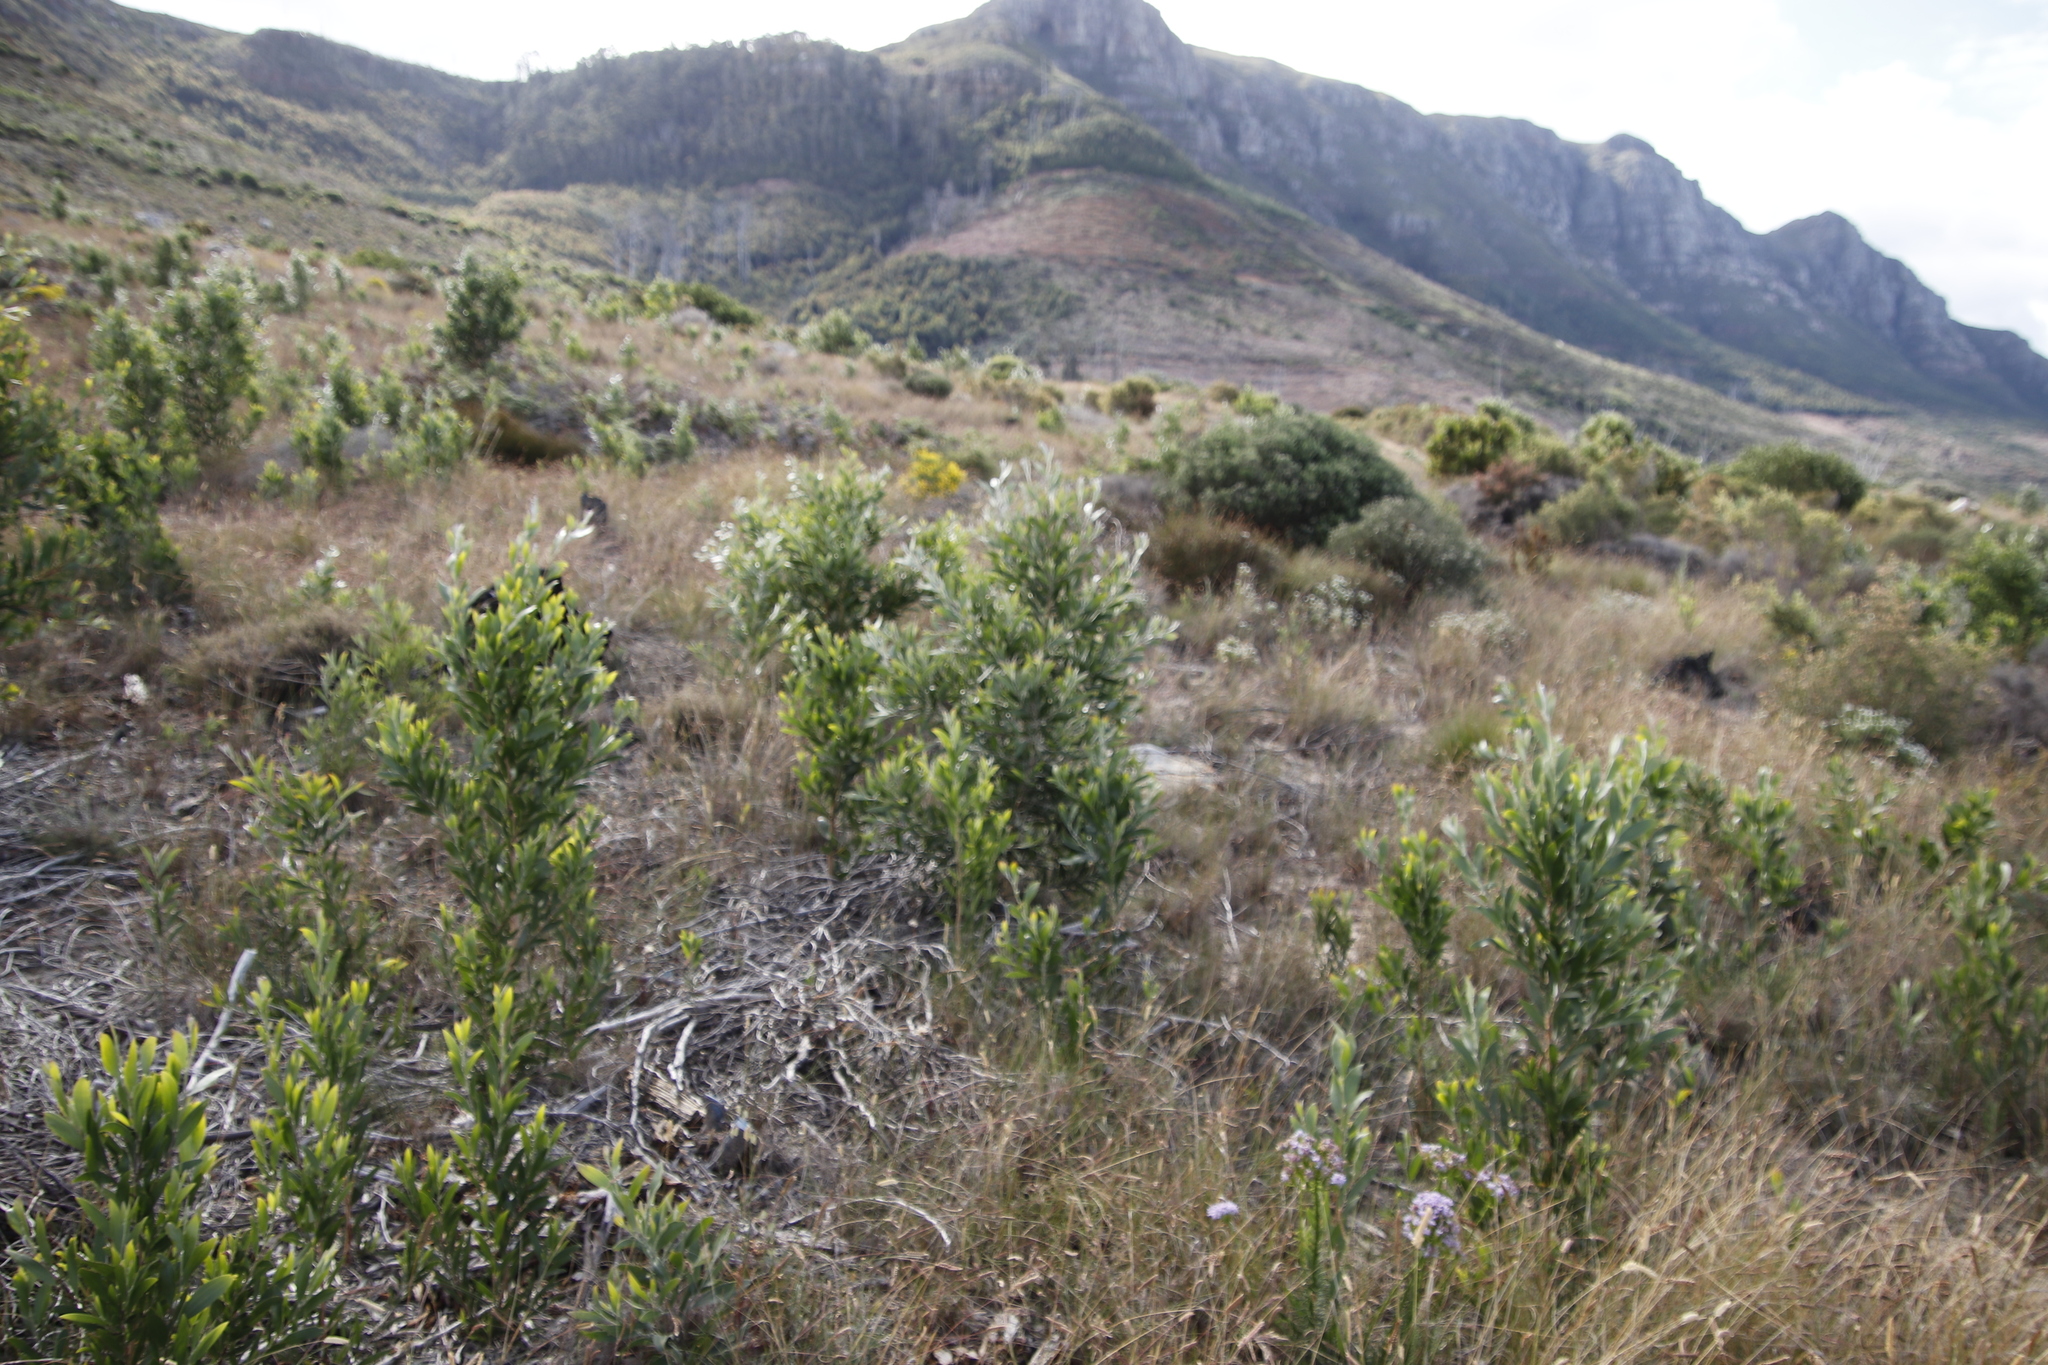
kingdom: Plantae
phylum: Tracheophyta
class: Magnoliopsida
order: Fabales
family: Fabaceae
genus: Acacia
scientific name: Acacia melanoxylon
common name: Blackwood
